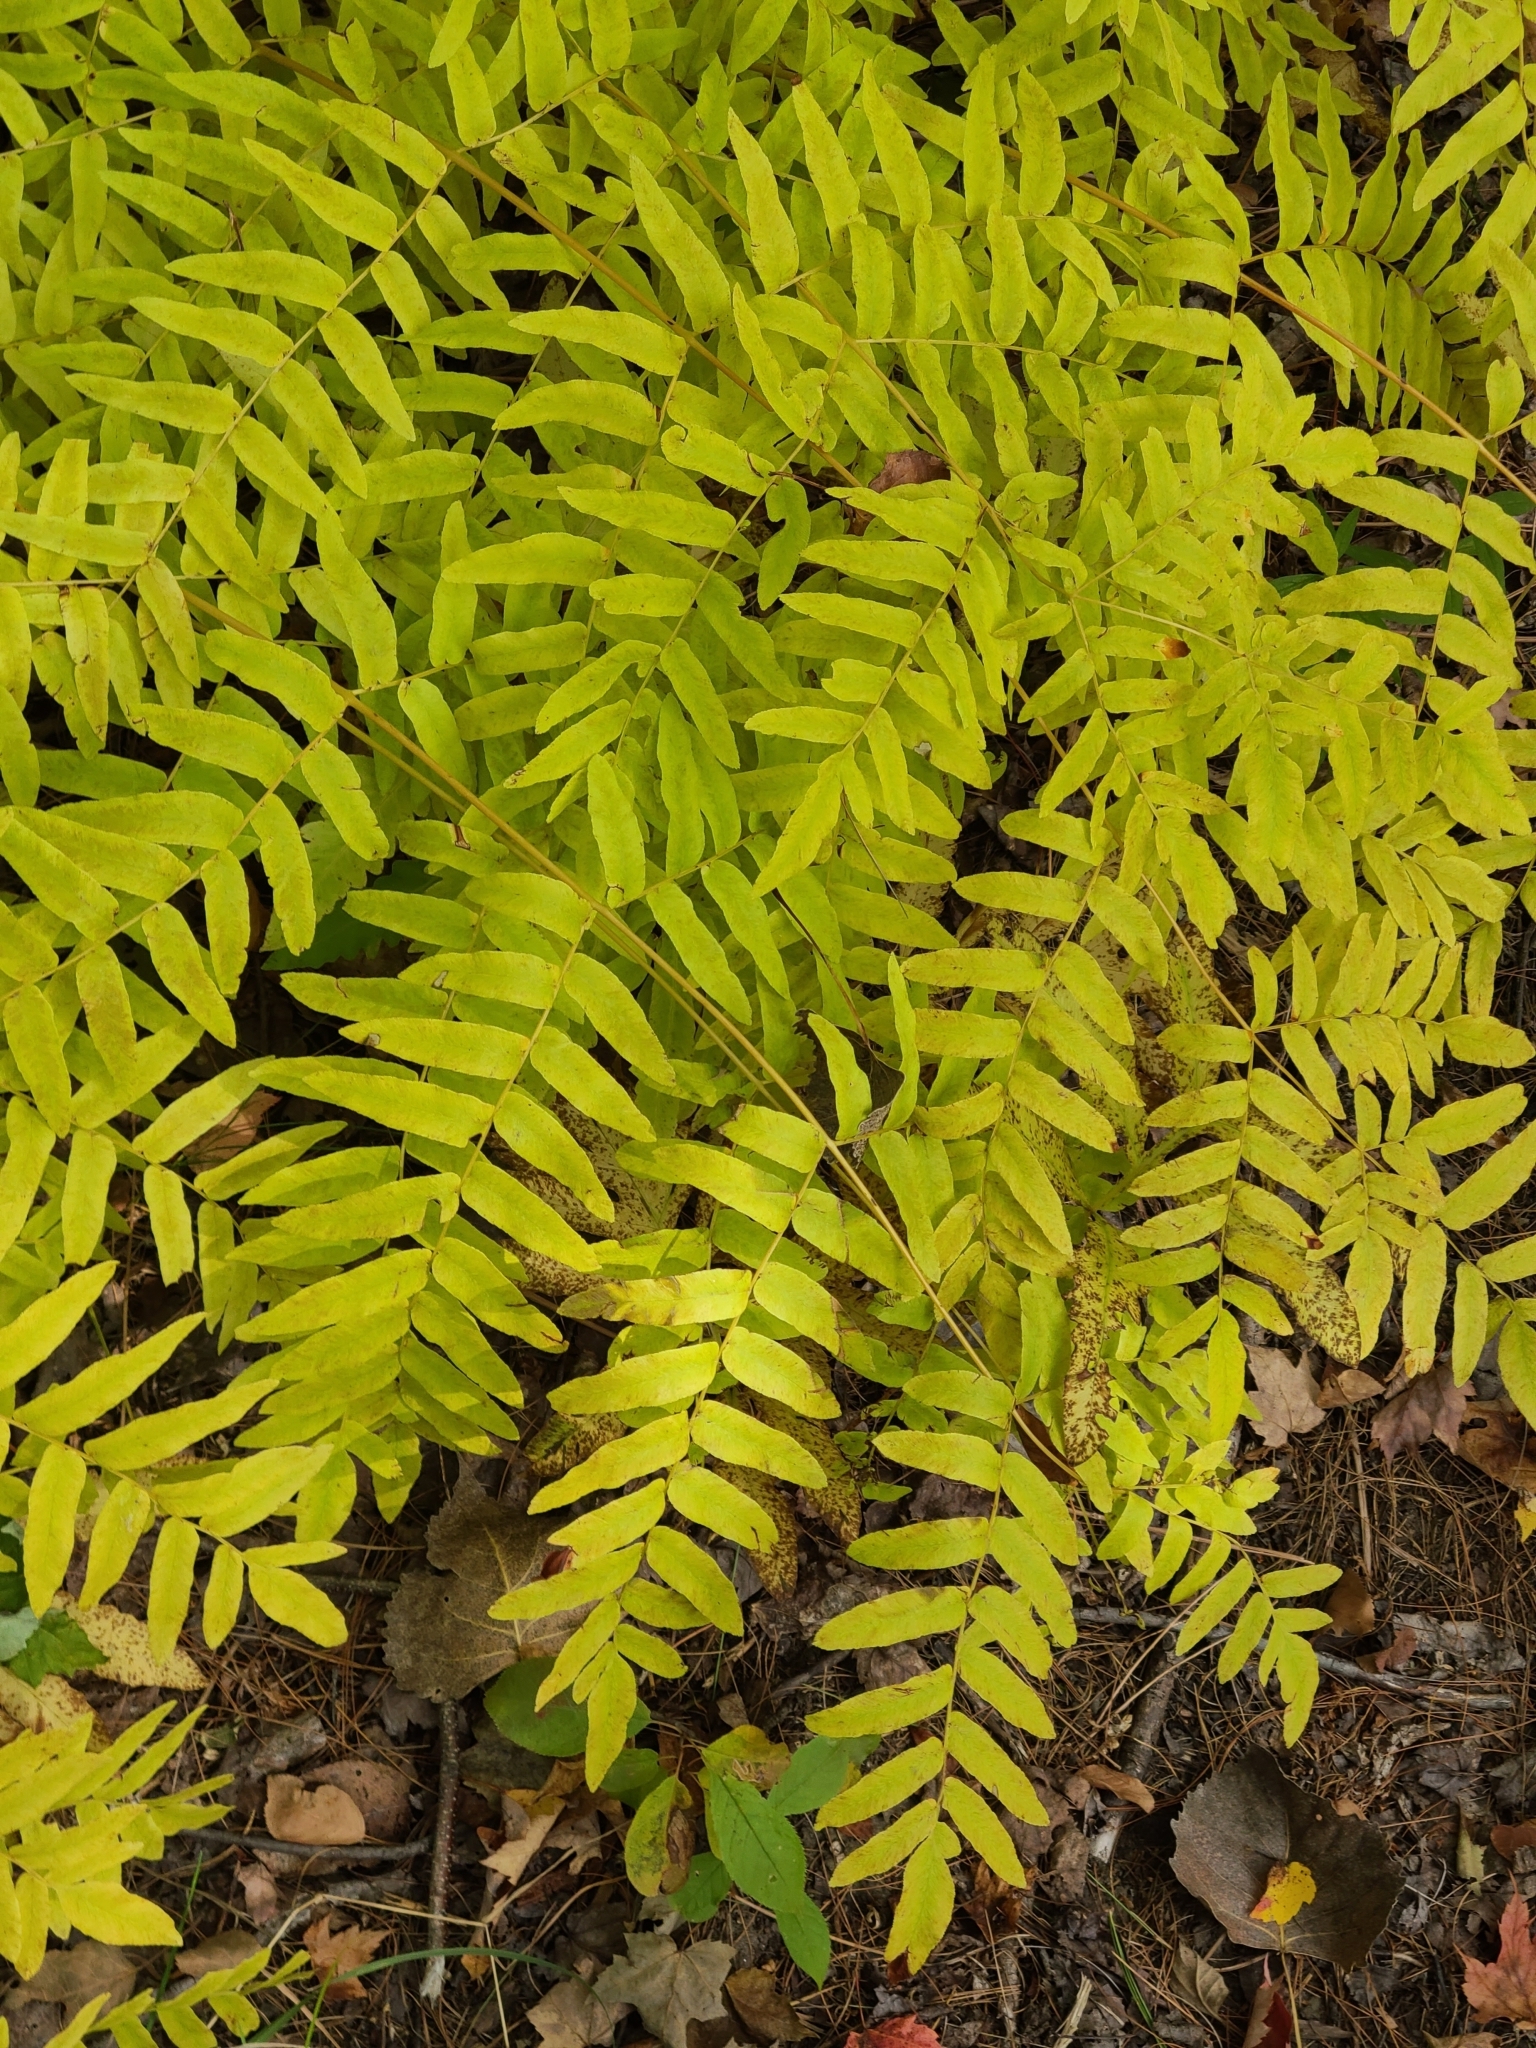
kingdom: Plantae
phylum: Tracheophyta
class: Polypodiopsida
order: Osmundales
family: Osmundaceae
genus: Osmunda
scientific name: Osmunda spectabilis
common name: American royal fern
